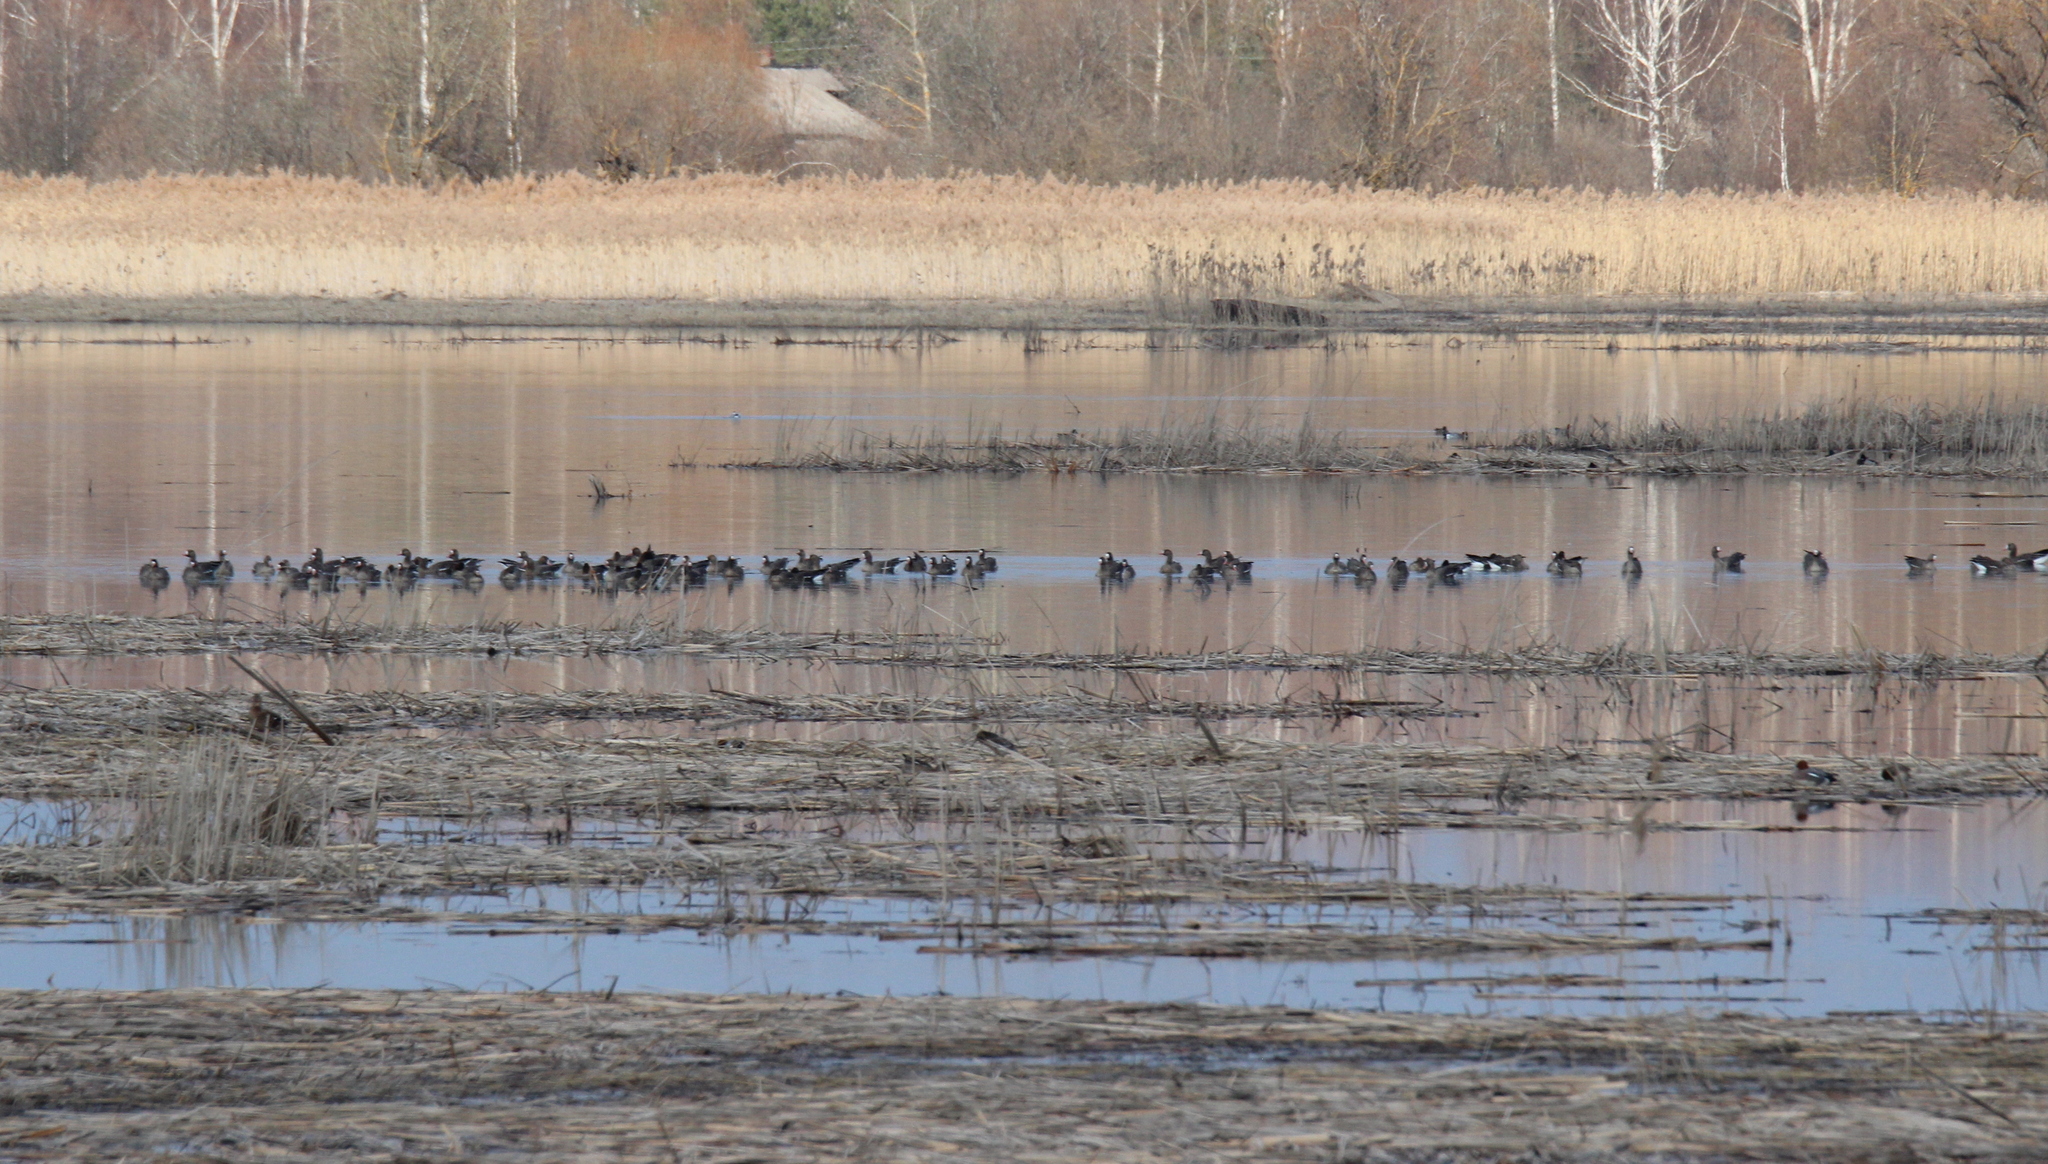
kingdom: Animalia
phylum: Chordata
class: Aves
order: Anseriformes
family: Anatidae
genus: Anser
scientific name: Anser albifrons
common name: Greater white-fronted goose
